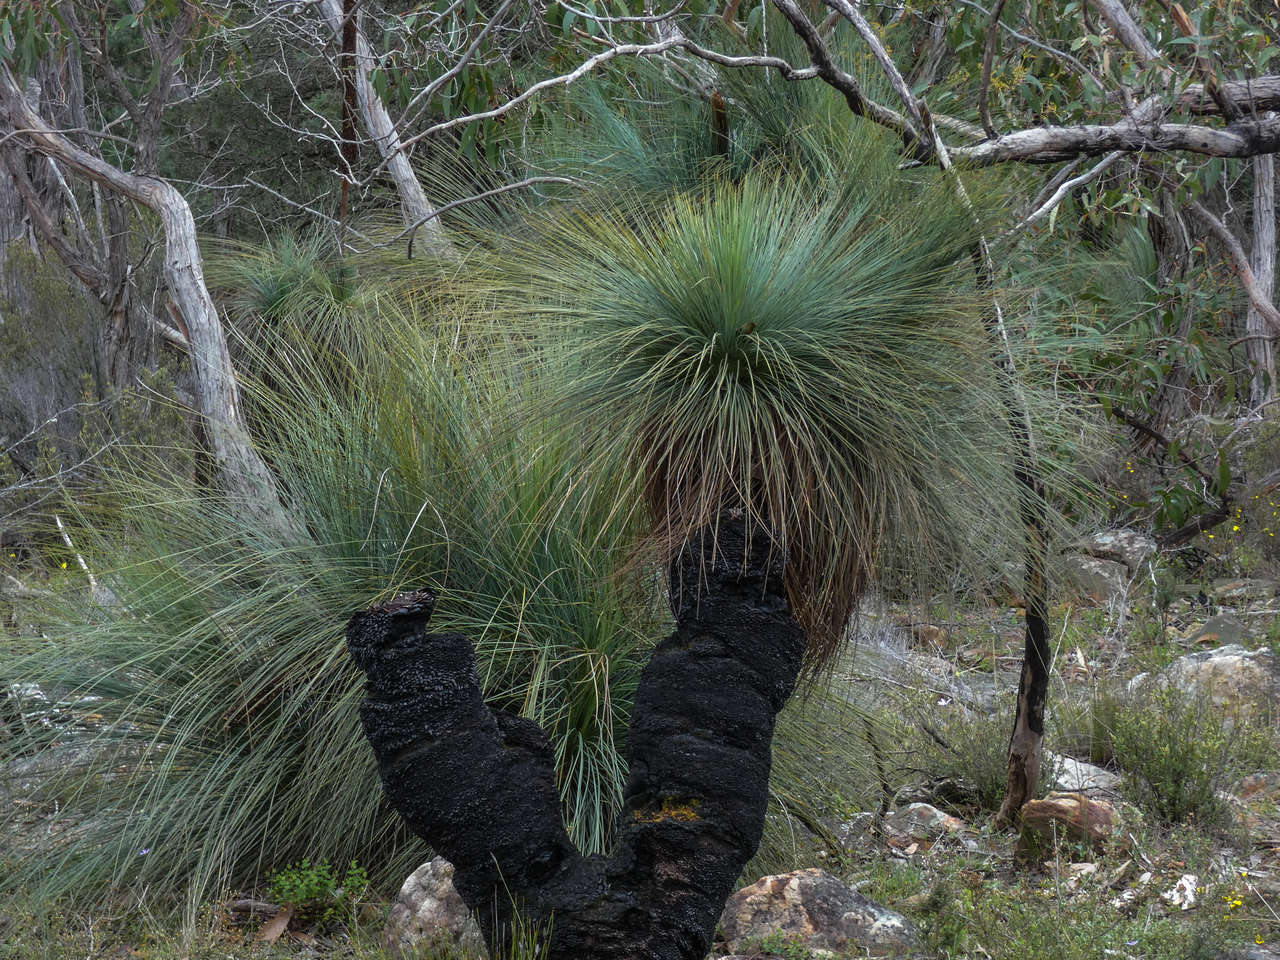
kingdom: Plantae
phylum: Tracheophyta
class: Liliopsida
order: Asparagales
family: Asphodelaceae
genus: Xanthorrhoea
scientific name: Xanthorrhoea australis
